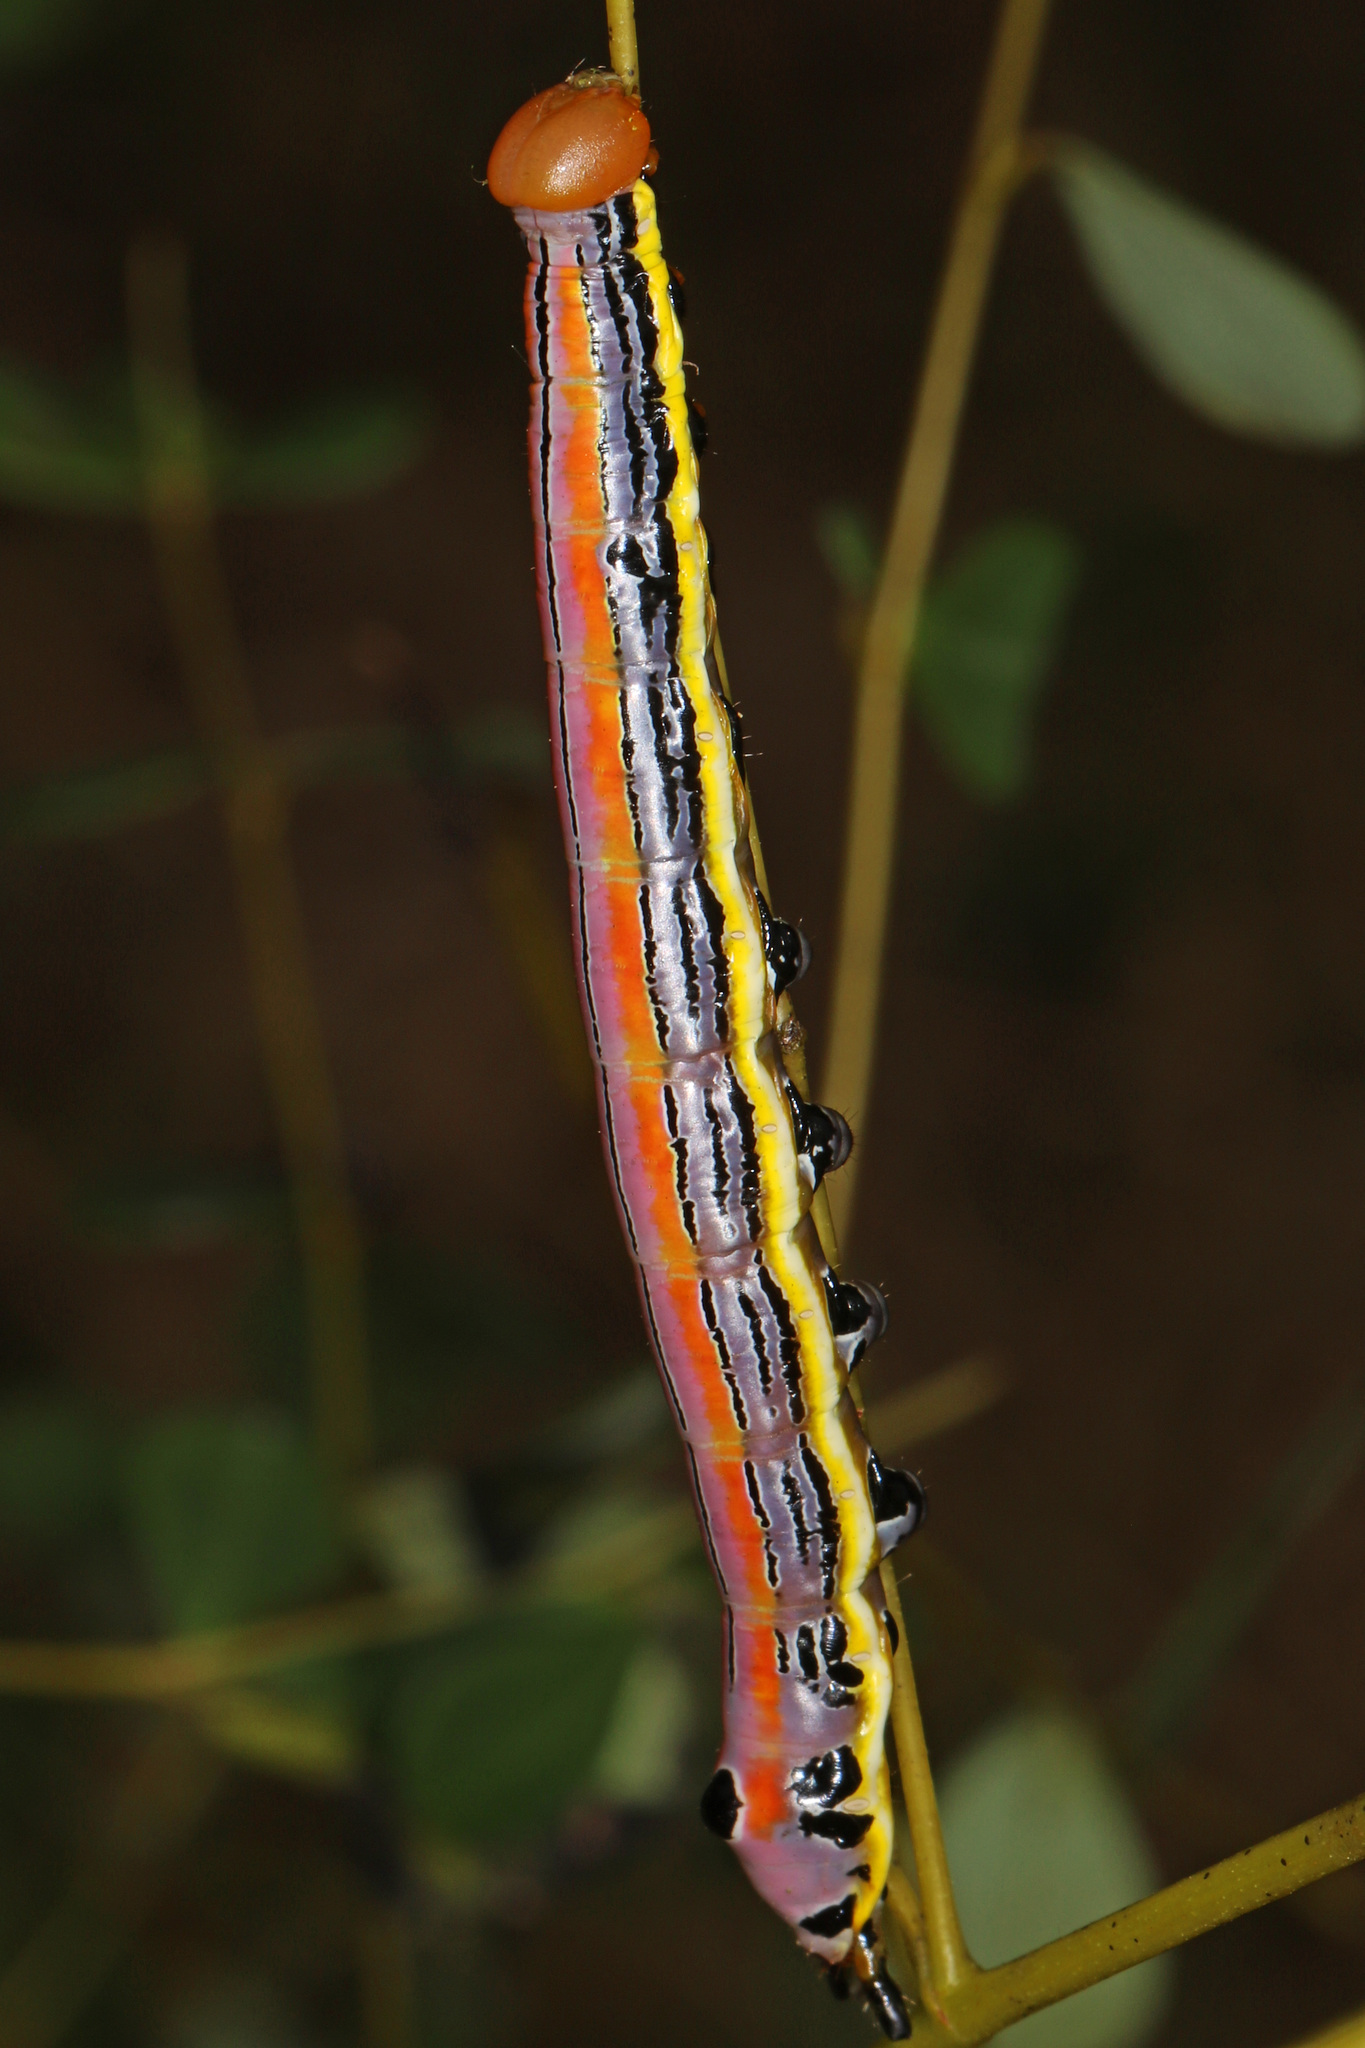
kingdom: Animalia
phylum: Arthropoda
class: Insecta
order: Lepidoptera
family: Notodontidae
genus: Dasylophia
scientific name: Dasylophia anguina
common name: Black-spotted prominent
